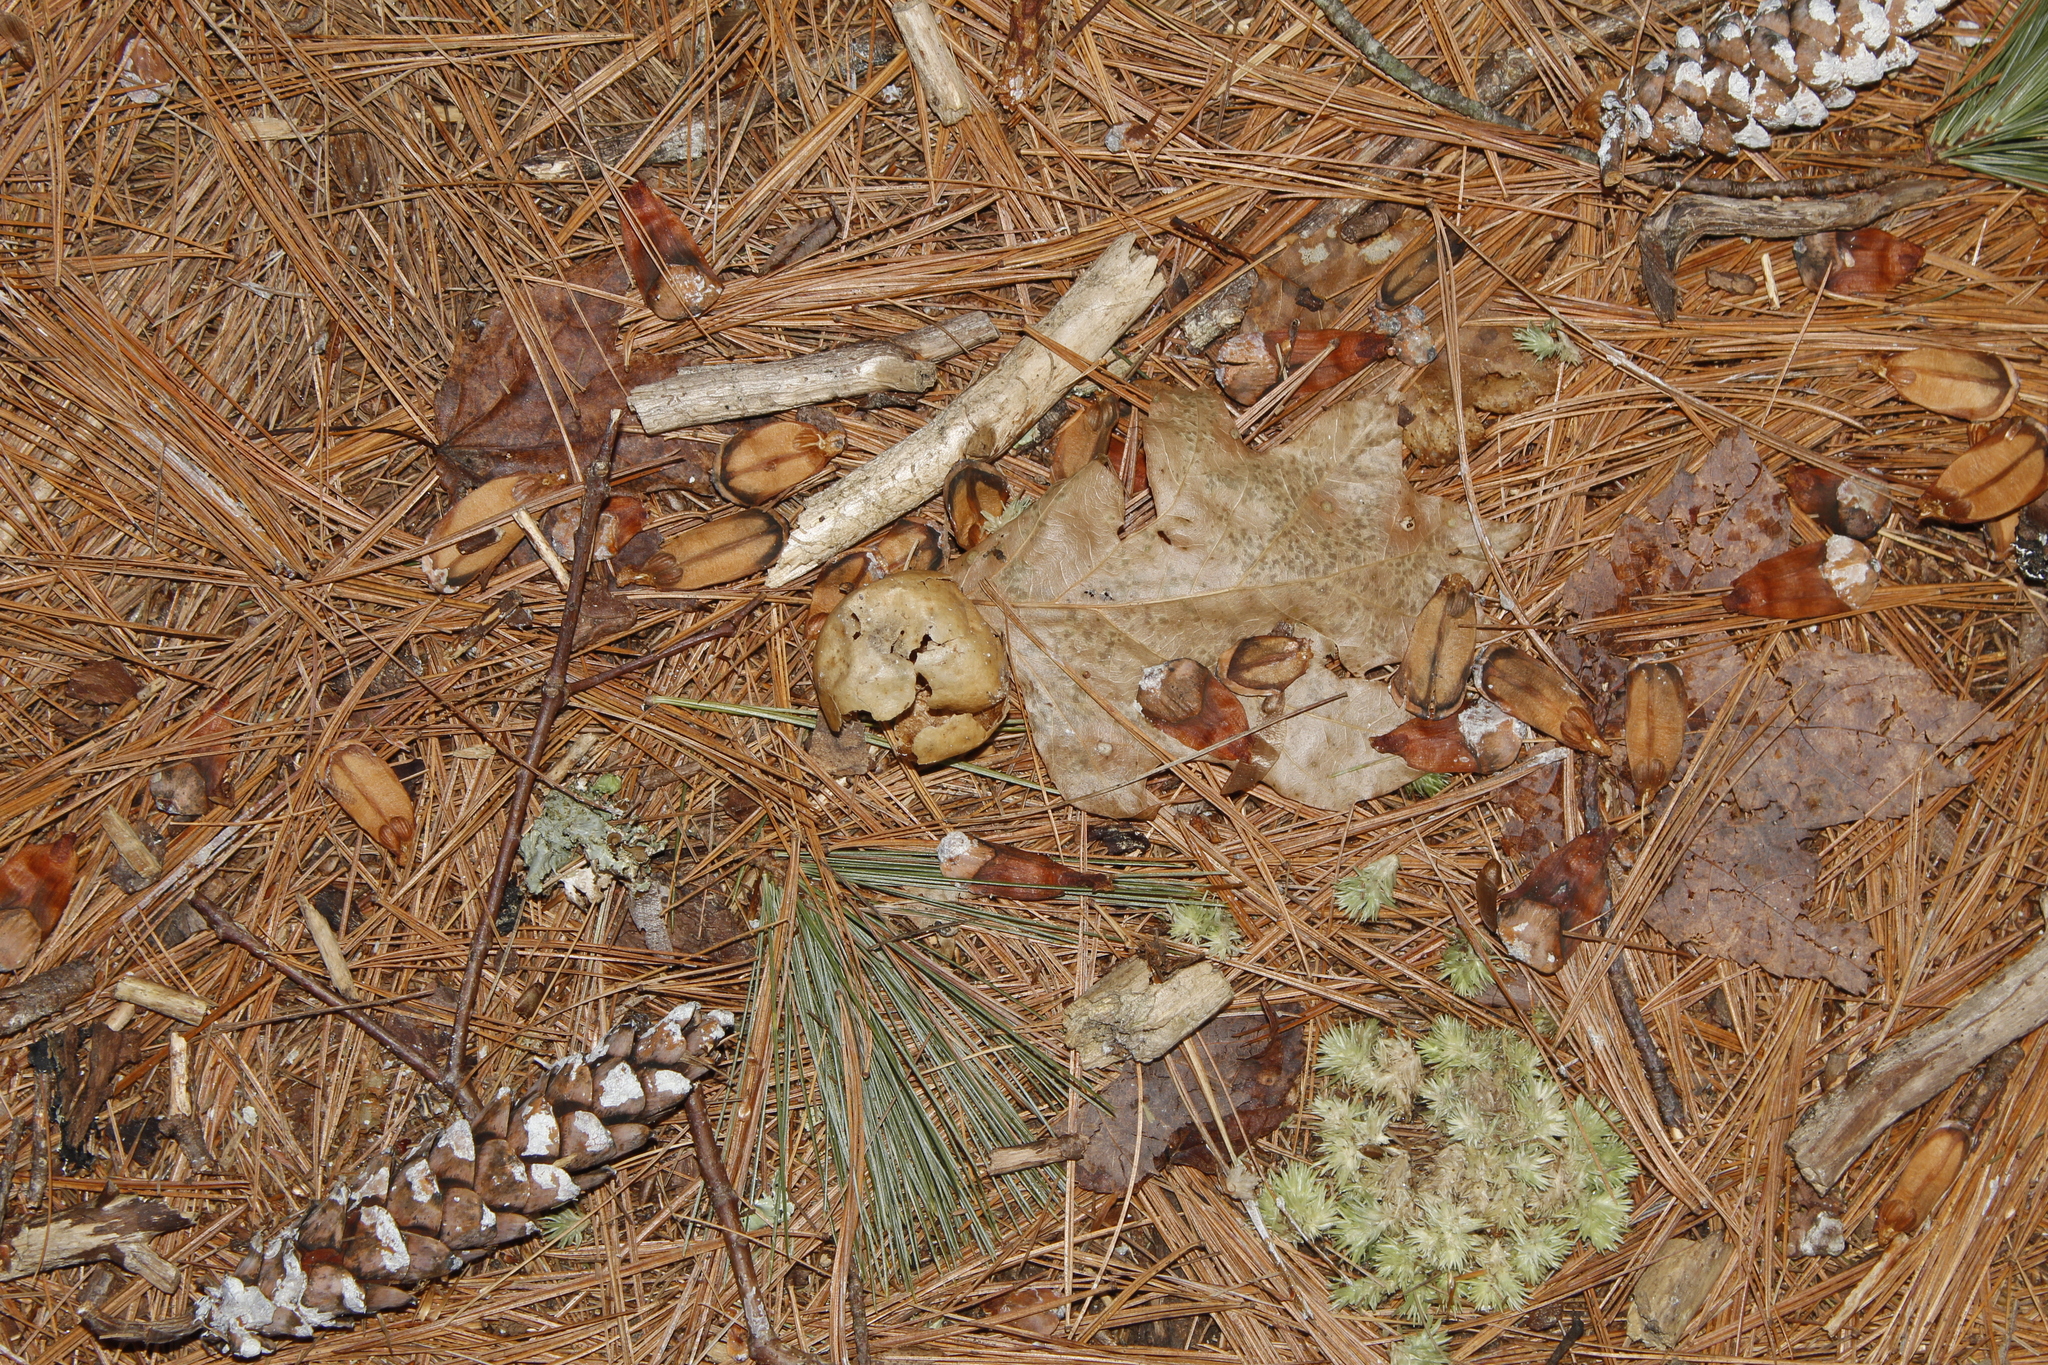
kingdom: Plantae
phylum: Tracheophyta
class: Pinopsida
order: Pinales
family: Pinaceae
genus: Pinus
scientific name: Pinus strobus
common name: Weymouth pine
